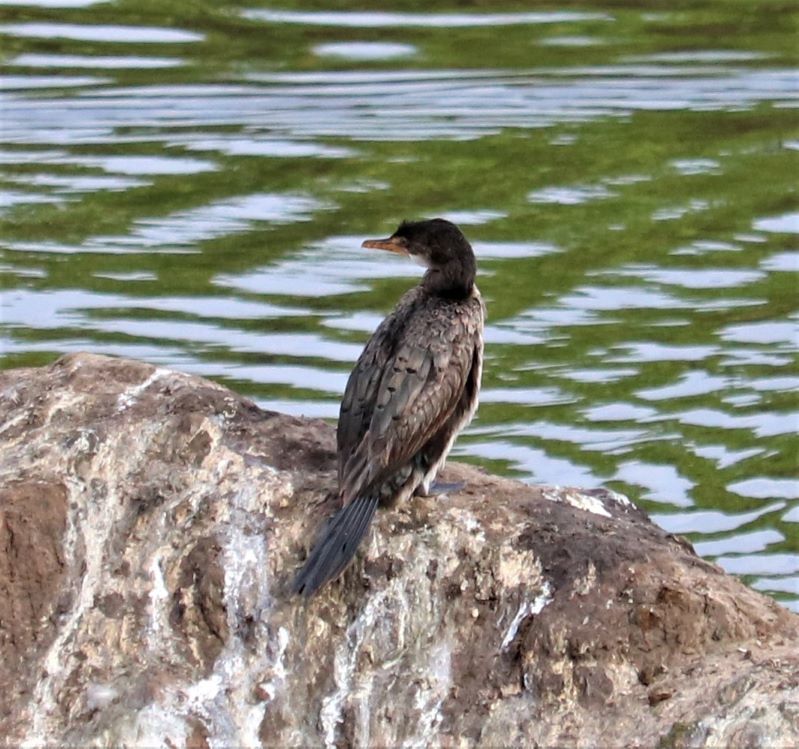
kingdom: Animalia
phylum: Chordata
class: Aves
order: Suliformes
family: Phalacrocoracidae
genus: Microcarbo
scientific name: Microcarbo africanus
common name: Long-tailed cormorant
